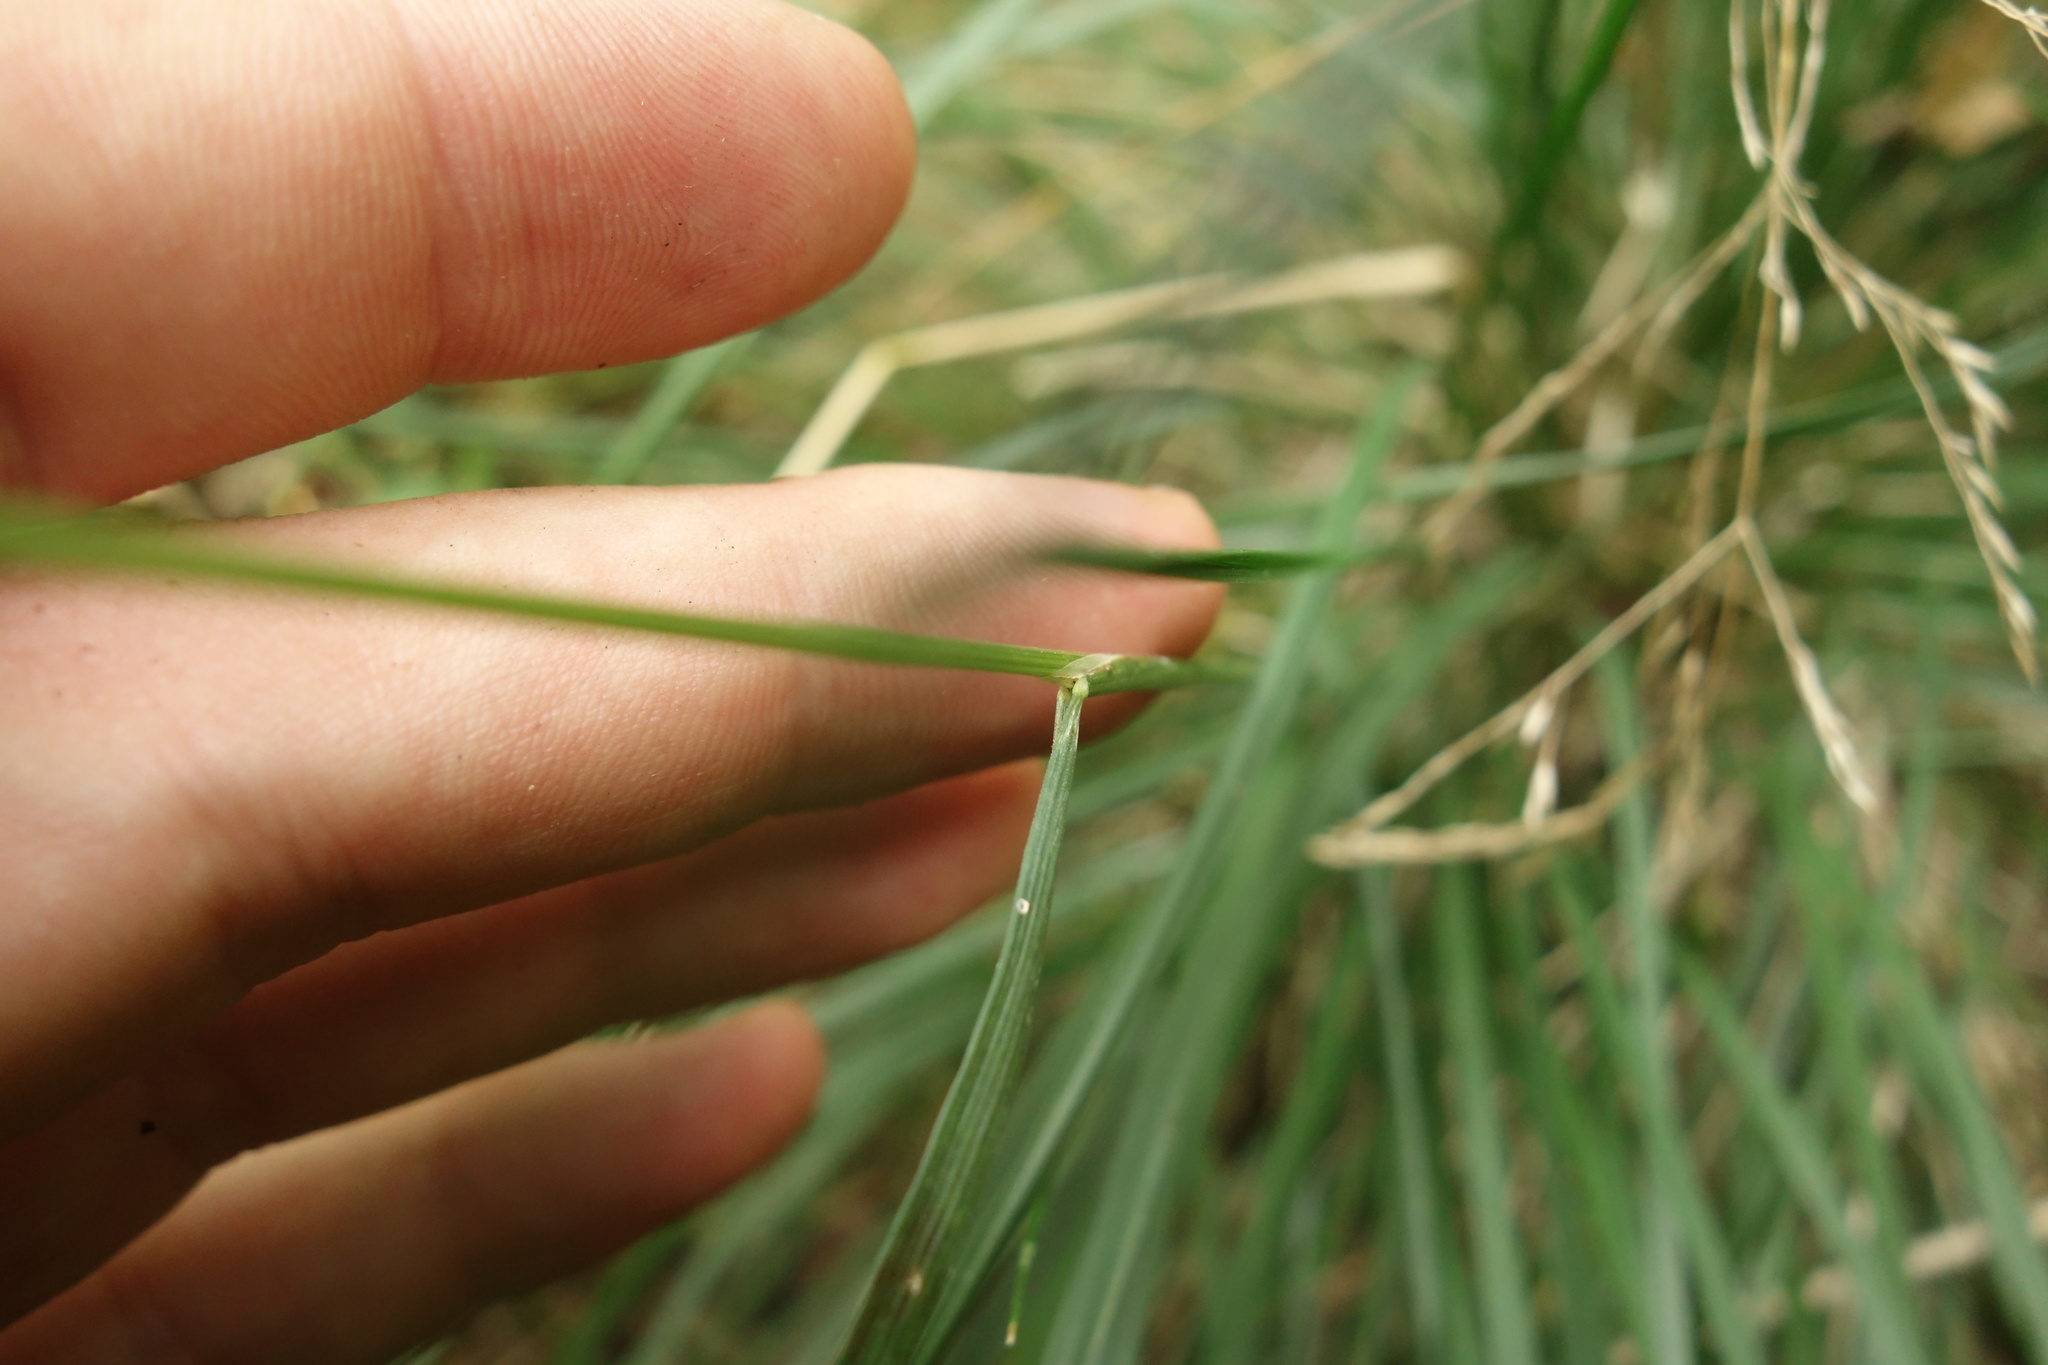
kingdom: Plantae
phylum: Tracheophyta
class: Liliopsida
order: Poales
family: Poaceae
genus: Deschampsia
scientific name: Deschampsia cespitosa
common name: Tufted hair-grass
